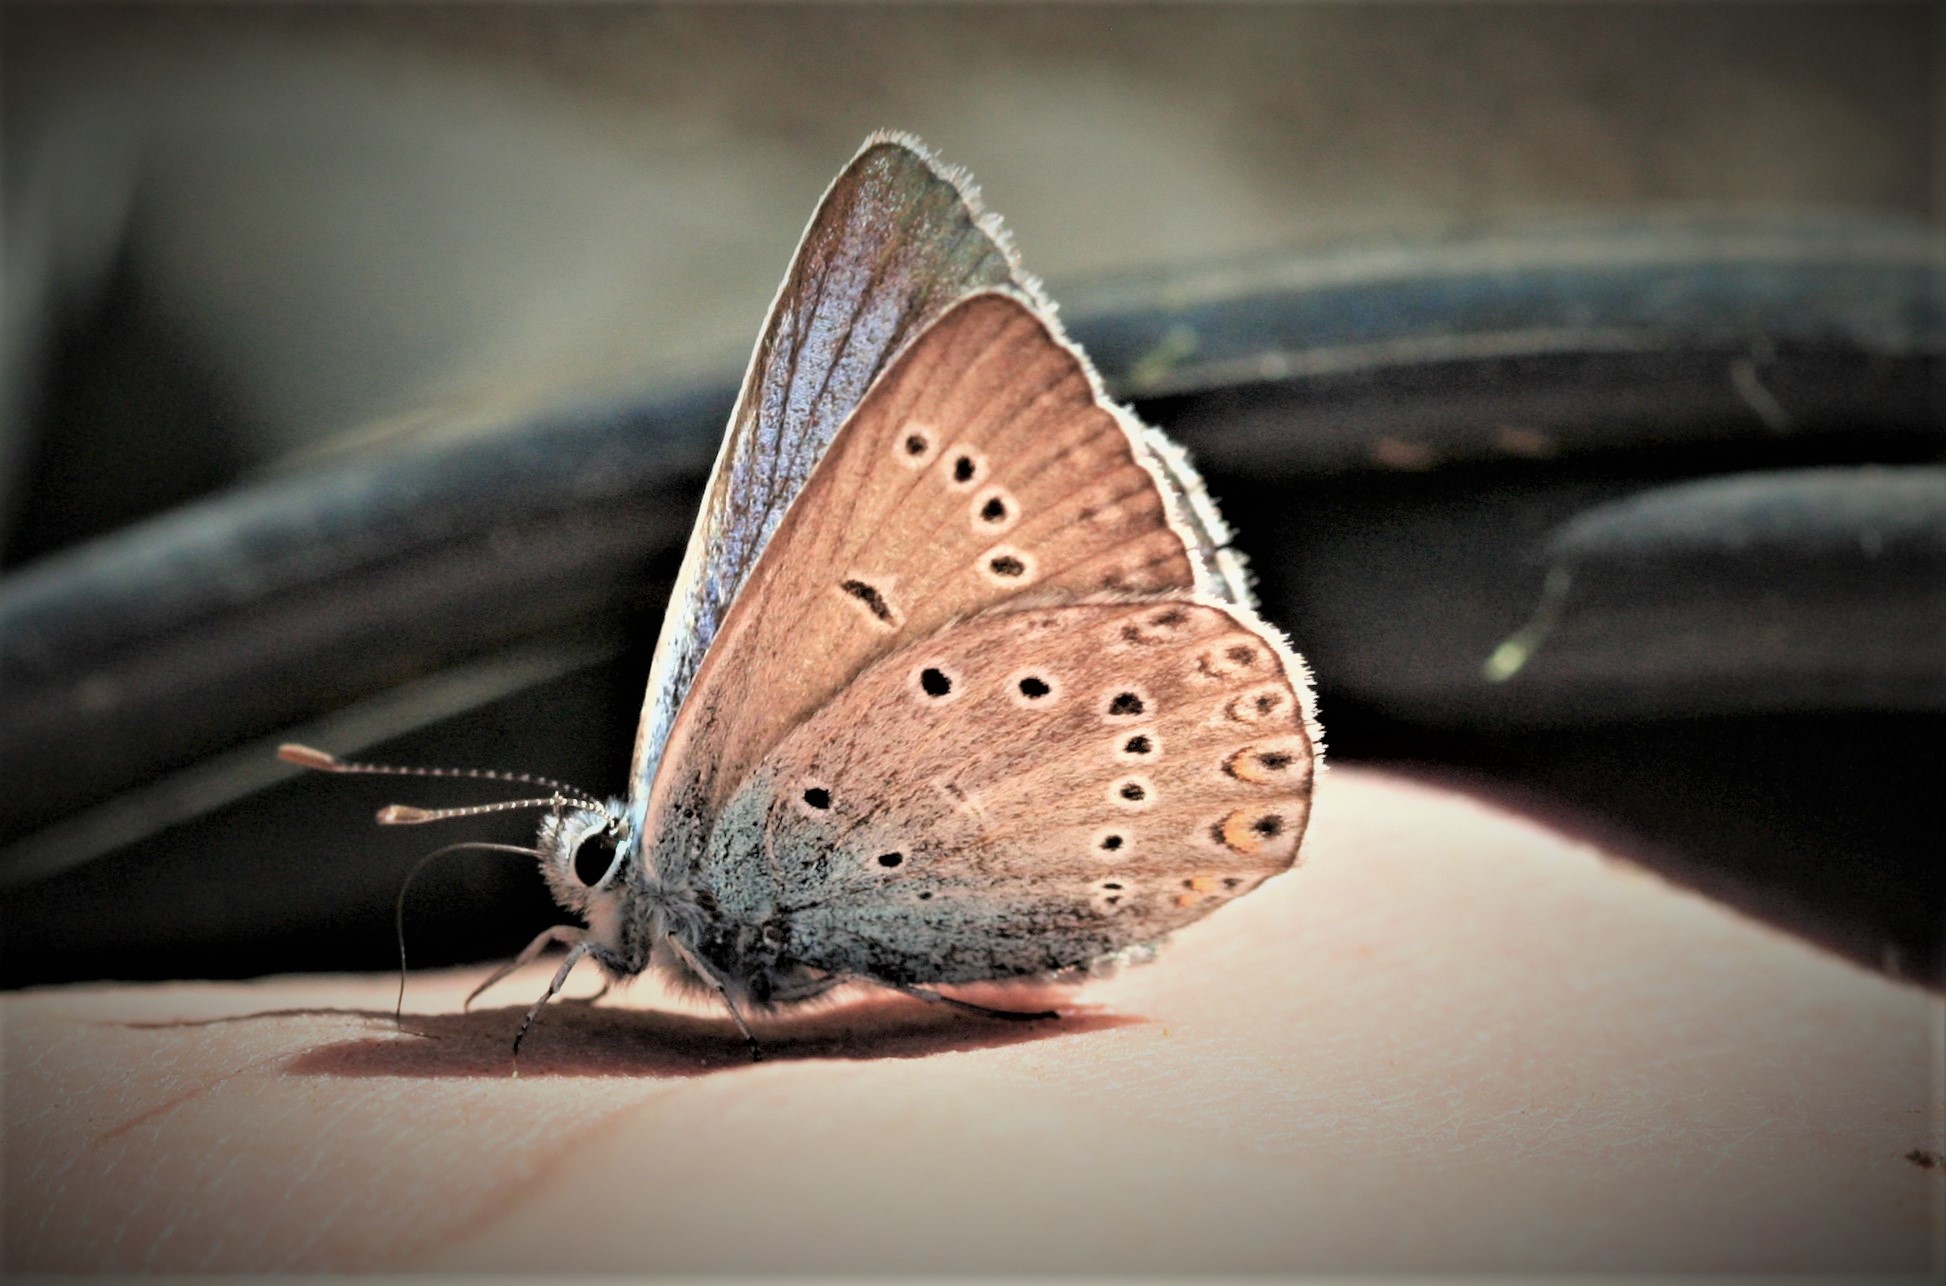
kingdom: Animalia
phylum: Arthropoda
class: Insecta
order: Lepidoptera
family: Lycaenidae
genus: Plebejus
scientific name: Plebejus amanda
